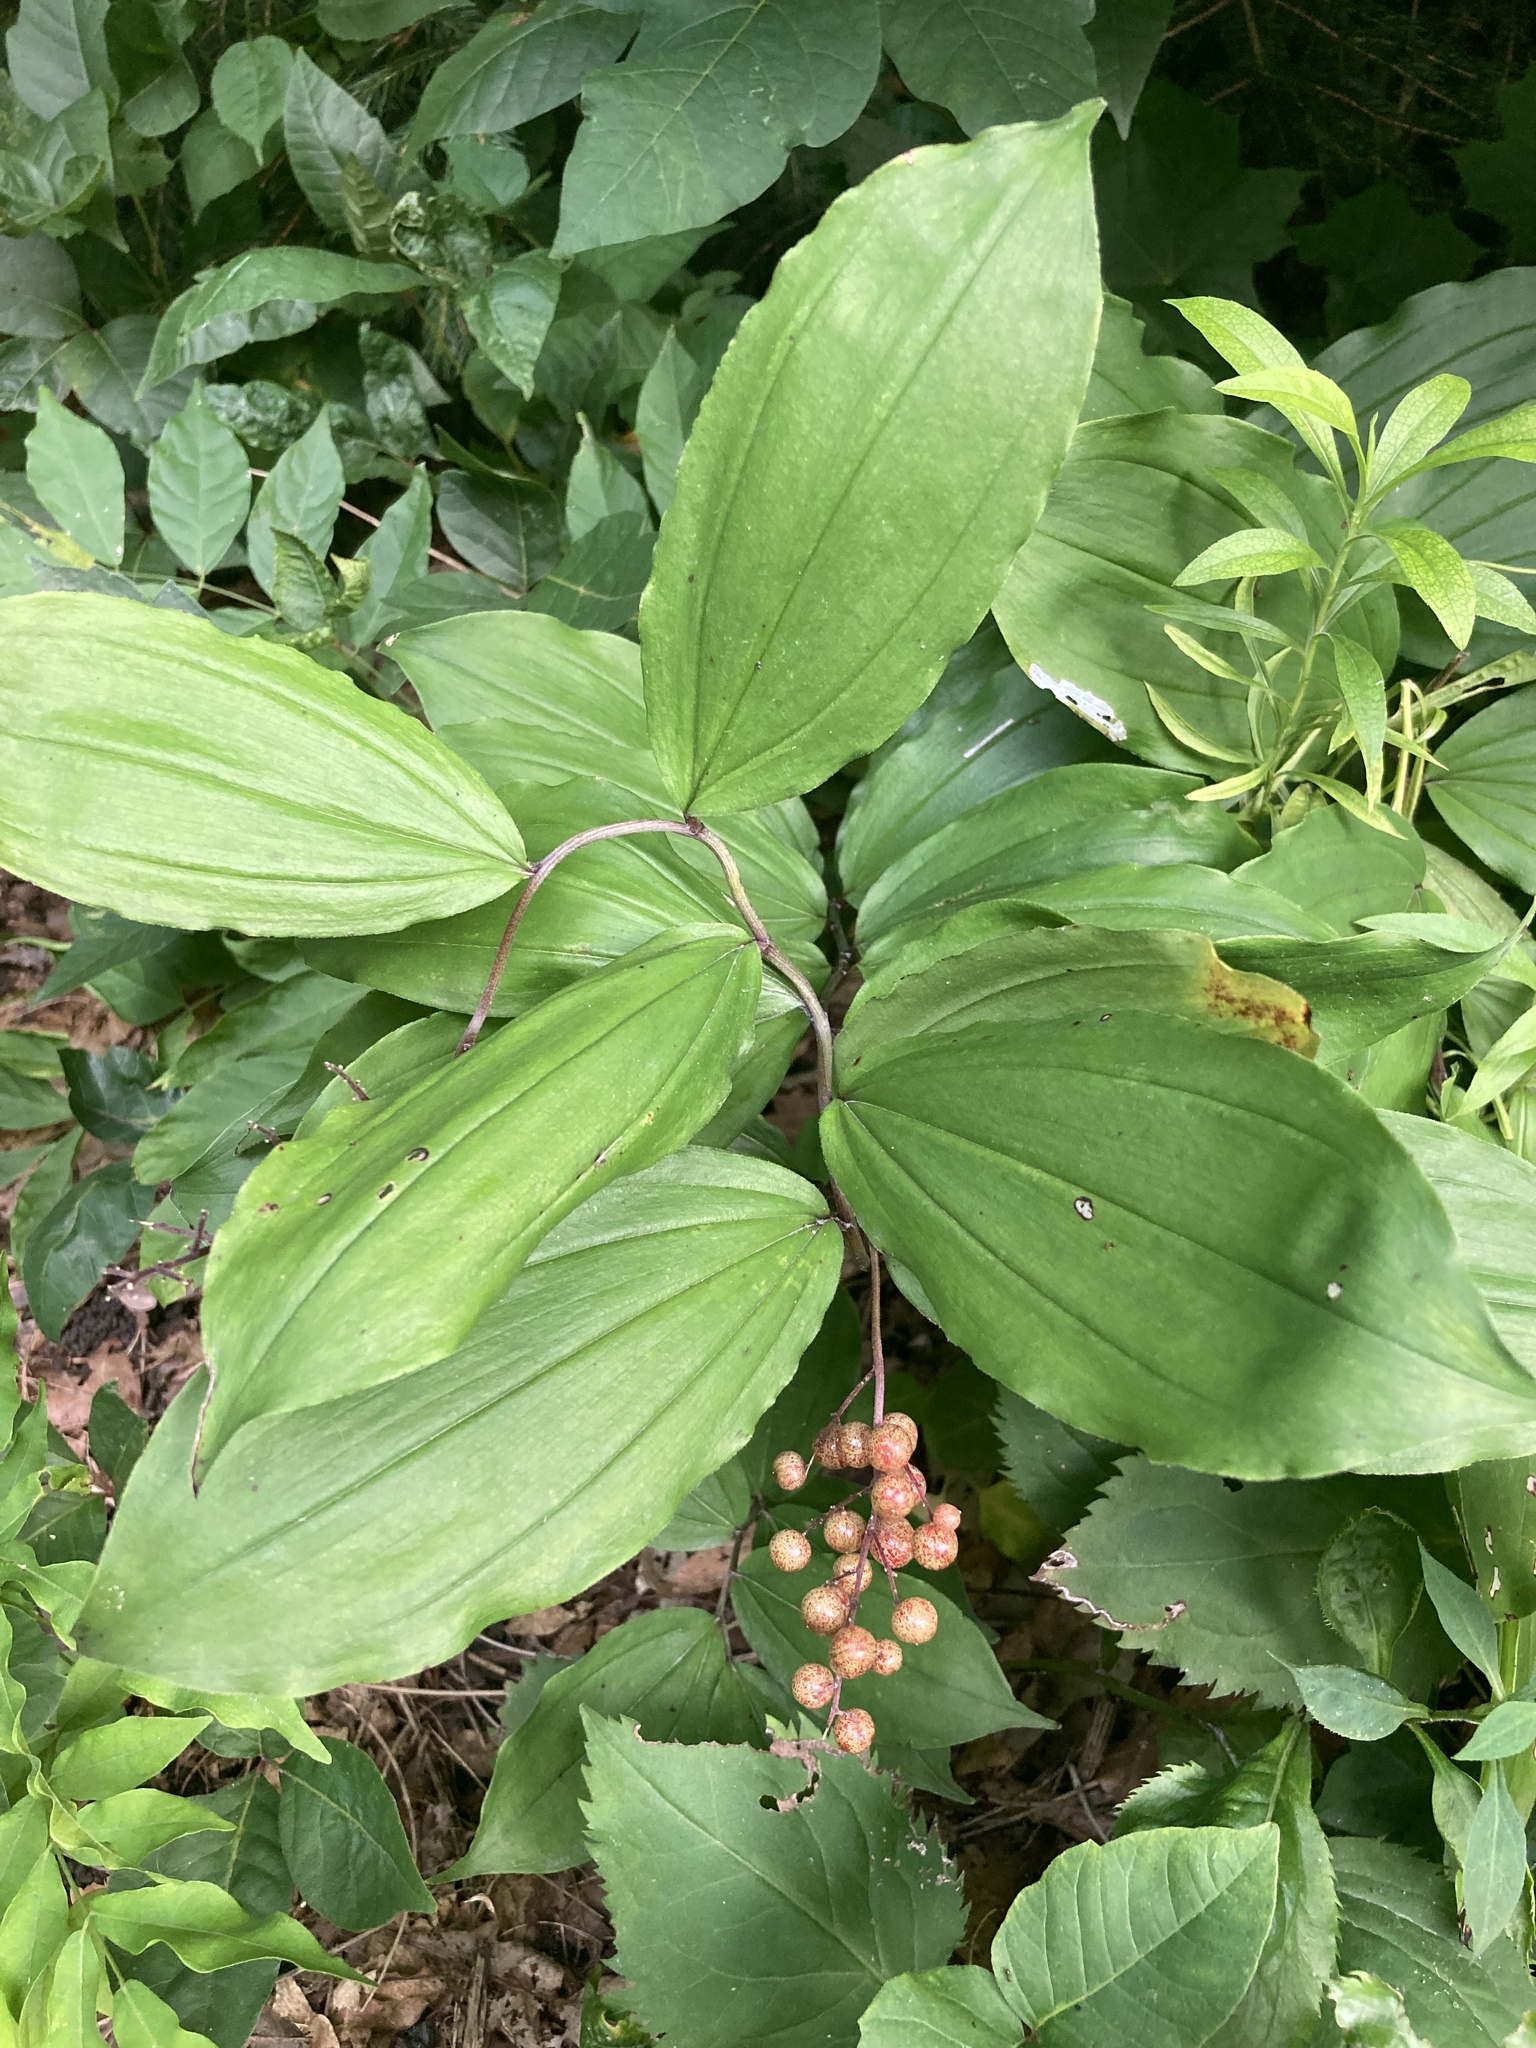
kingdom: Plantae
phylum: Tracheophyta
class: Liliopsida
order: Asparagales
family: Asparagaceae
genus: Maianthemum
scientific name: Maianthemum racemosum
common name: False spikenard
